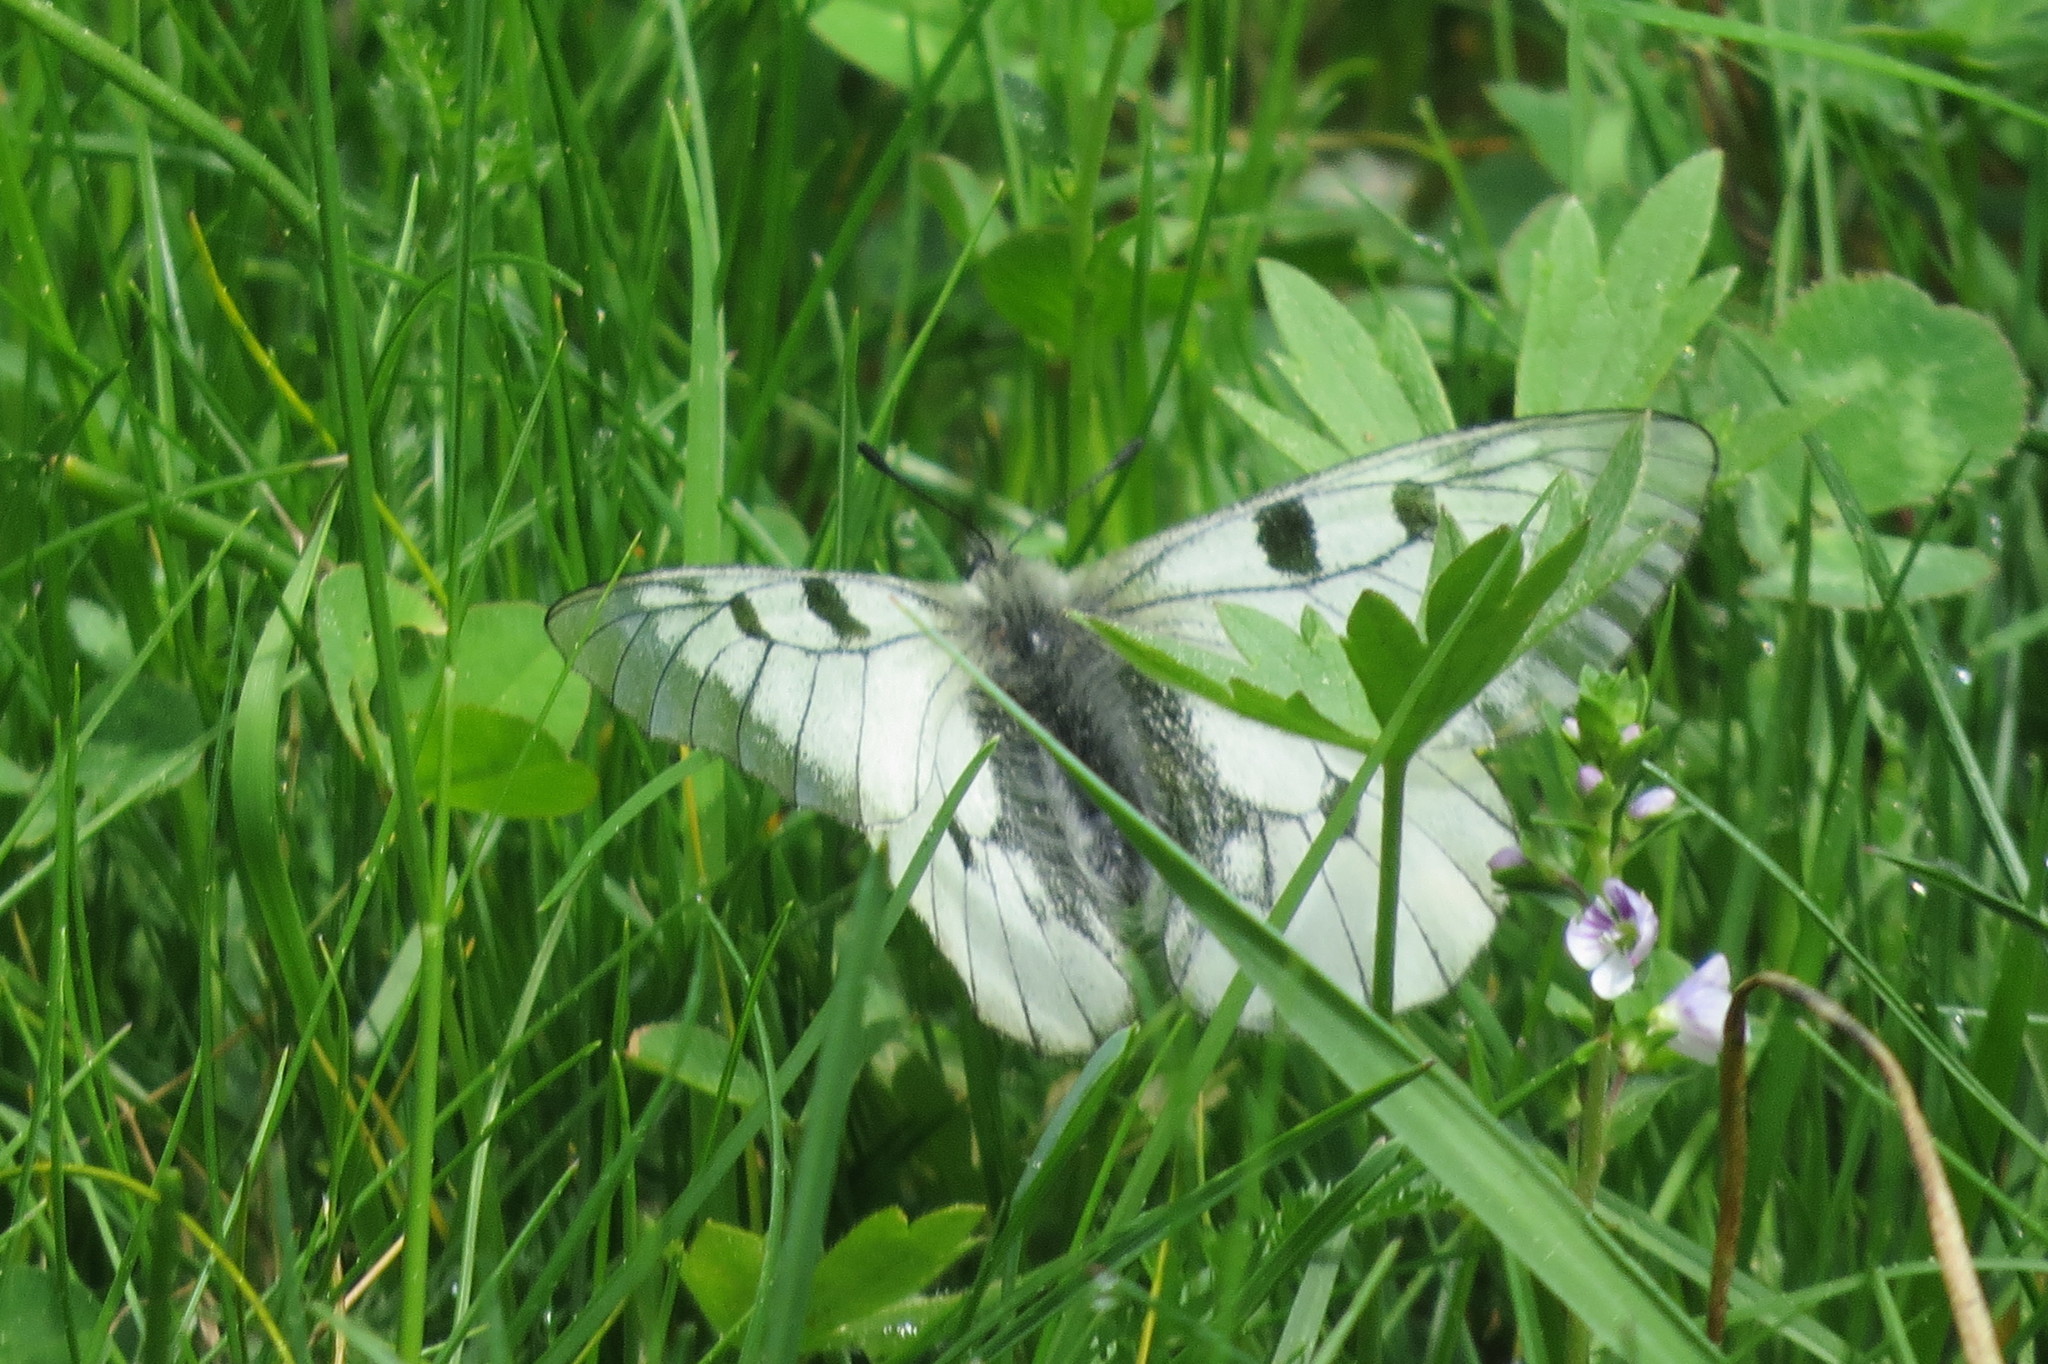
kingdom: Animalia
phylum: Arthropoda
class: Insecta
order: Lepidoptera
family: Papilionidae
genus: Parnassius
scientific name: Parnassius mnemosyne
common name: Clouded apollo
